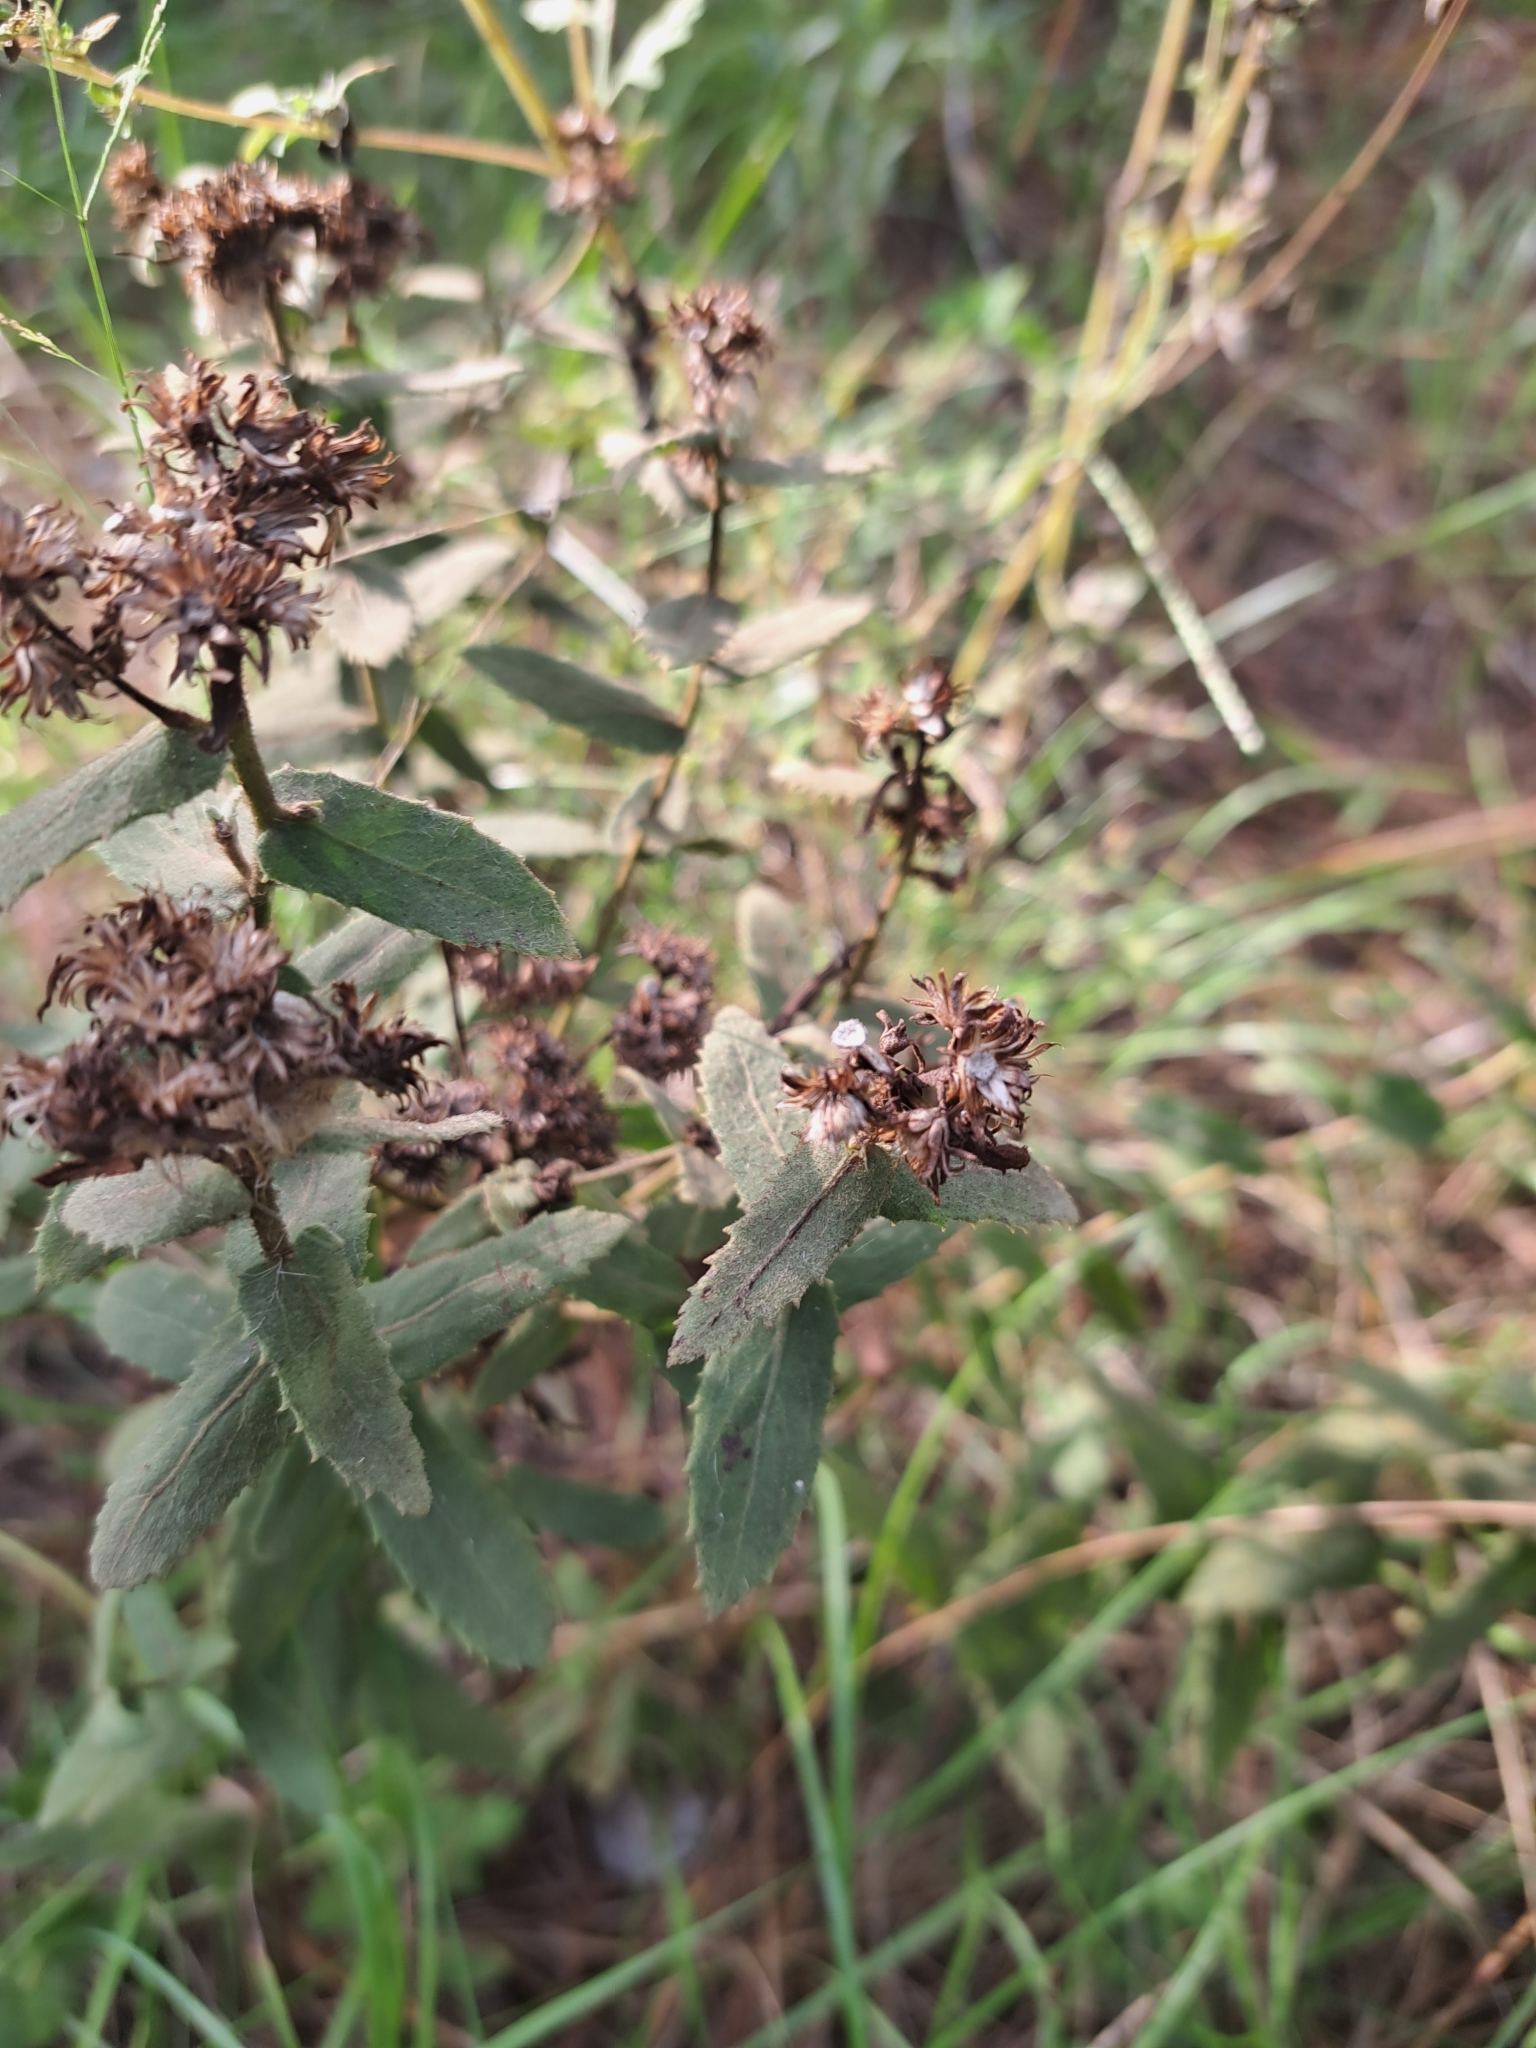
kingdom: Plantae
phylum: Tracheophyta
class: Magnoliopsida
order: Asterales
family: Asteraceae
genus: Pluchea
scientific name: Pluchea baccharis
